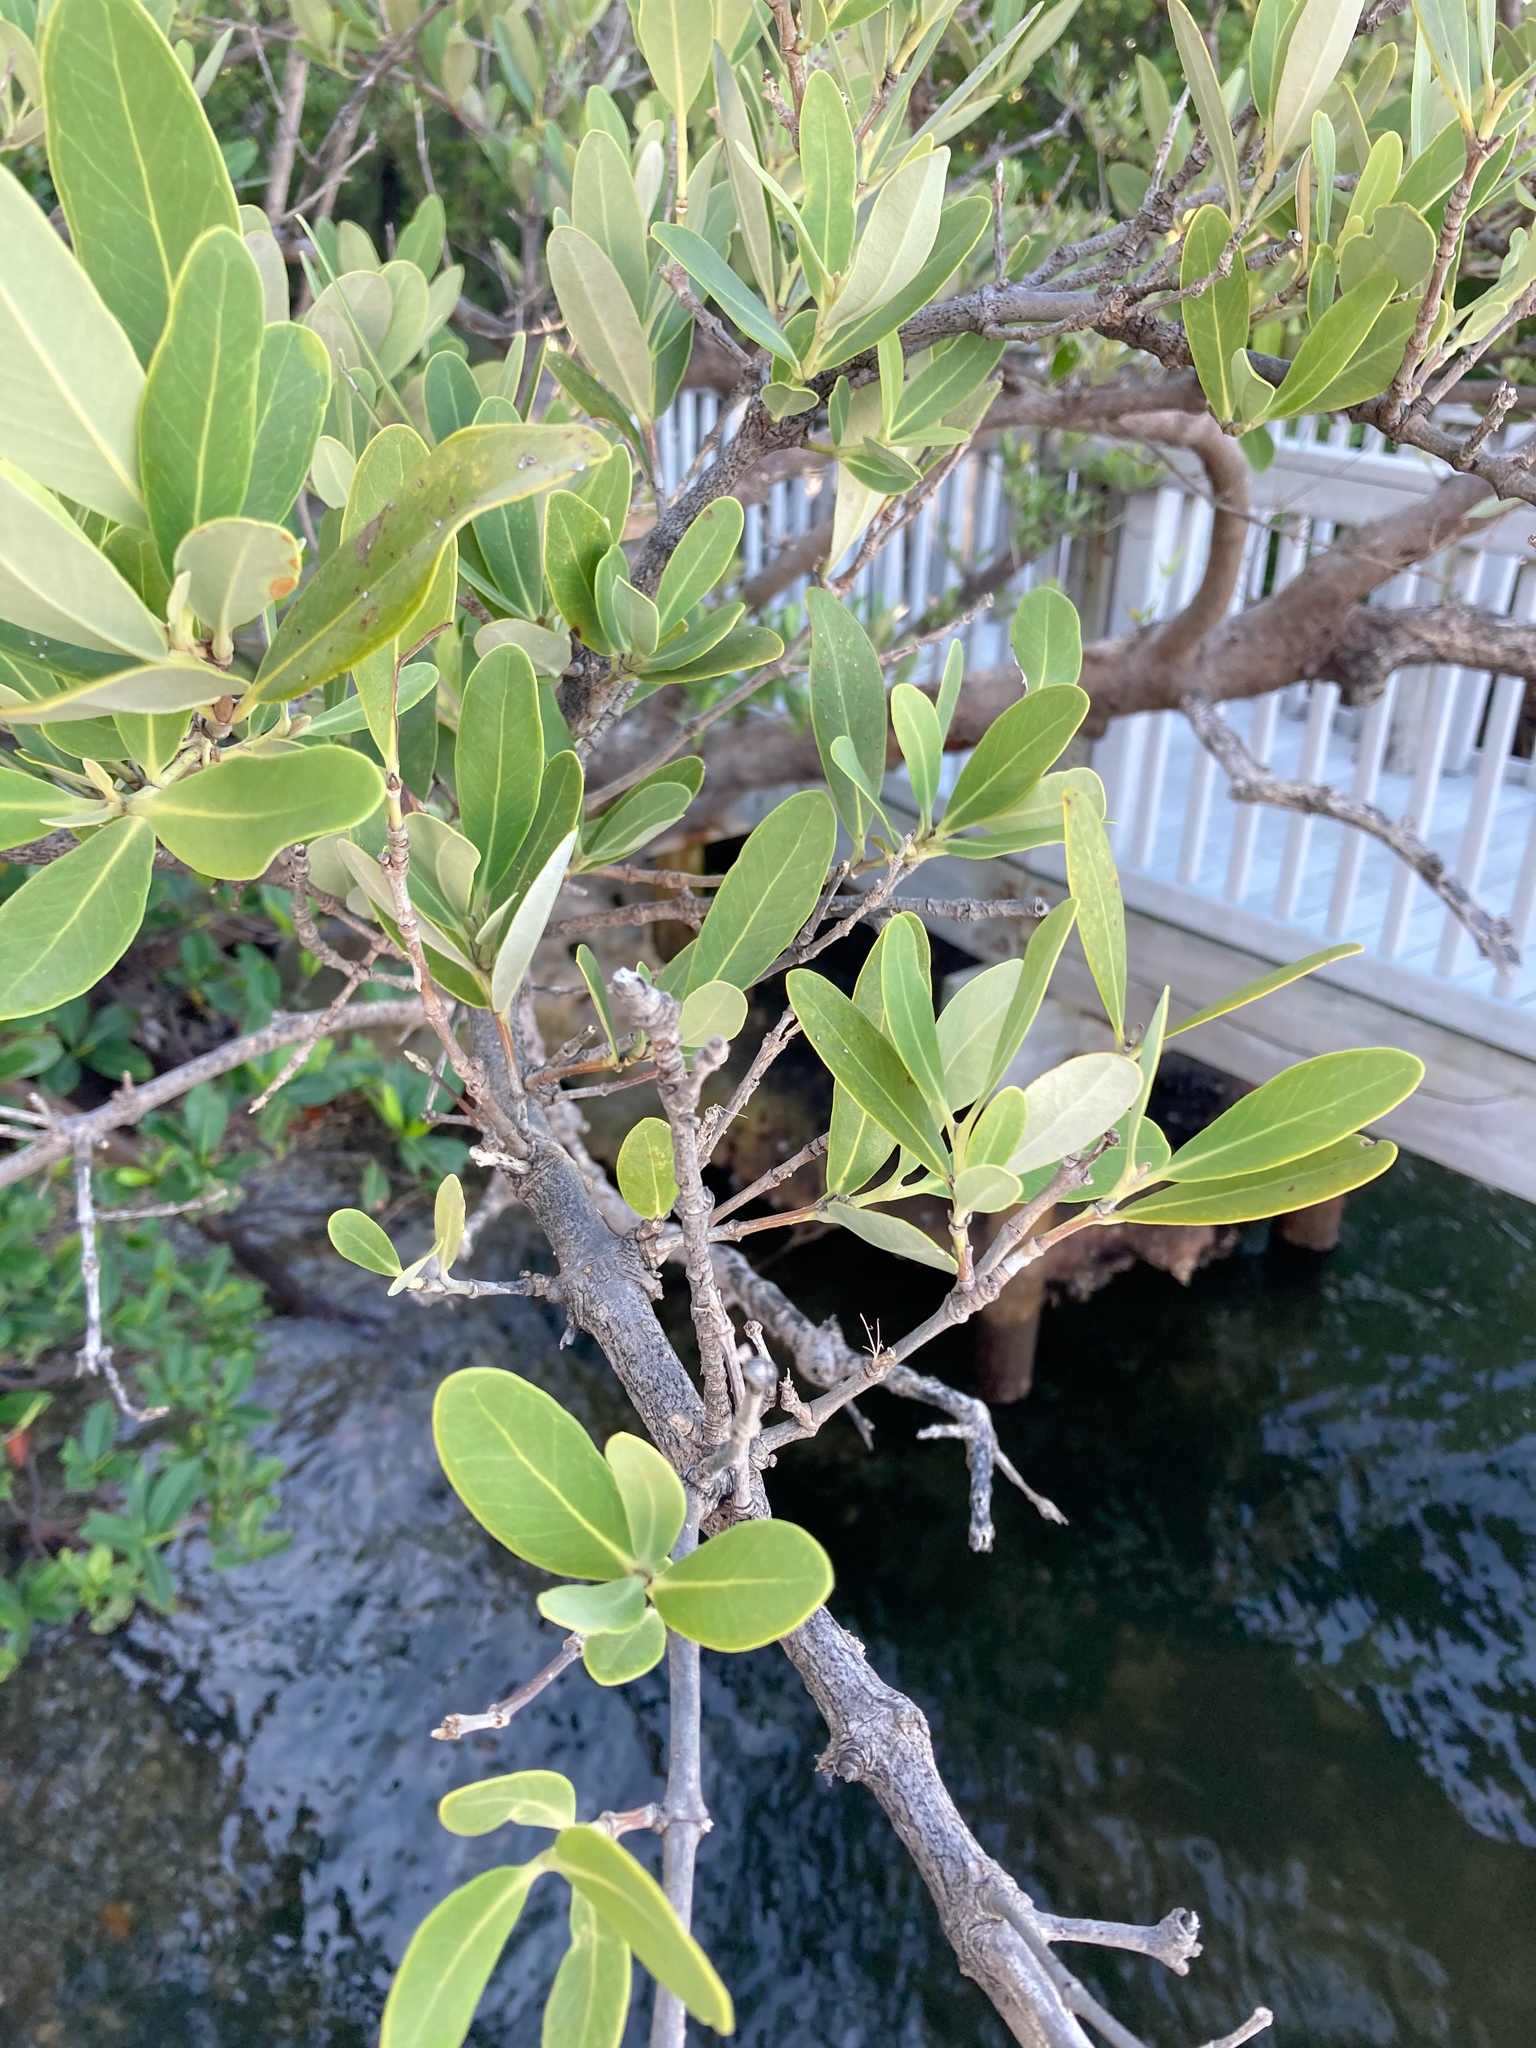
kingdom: Plantae
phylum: Tracheophyta
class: Magnoliopsida
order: Lamiales
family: Acanthaceae
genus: Avicennia
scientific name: Avicennia germinans
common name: Black mangrove
